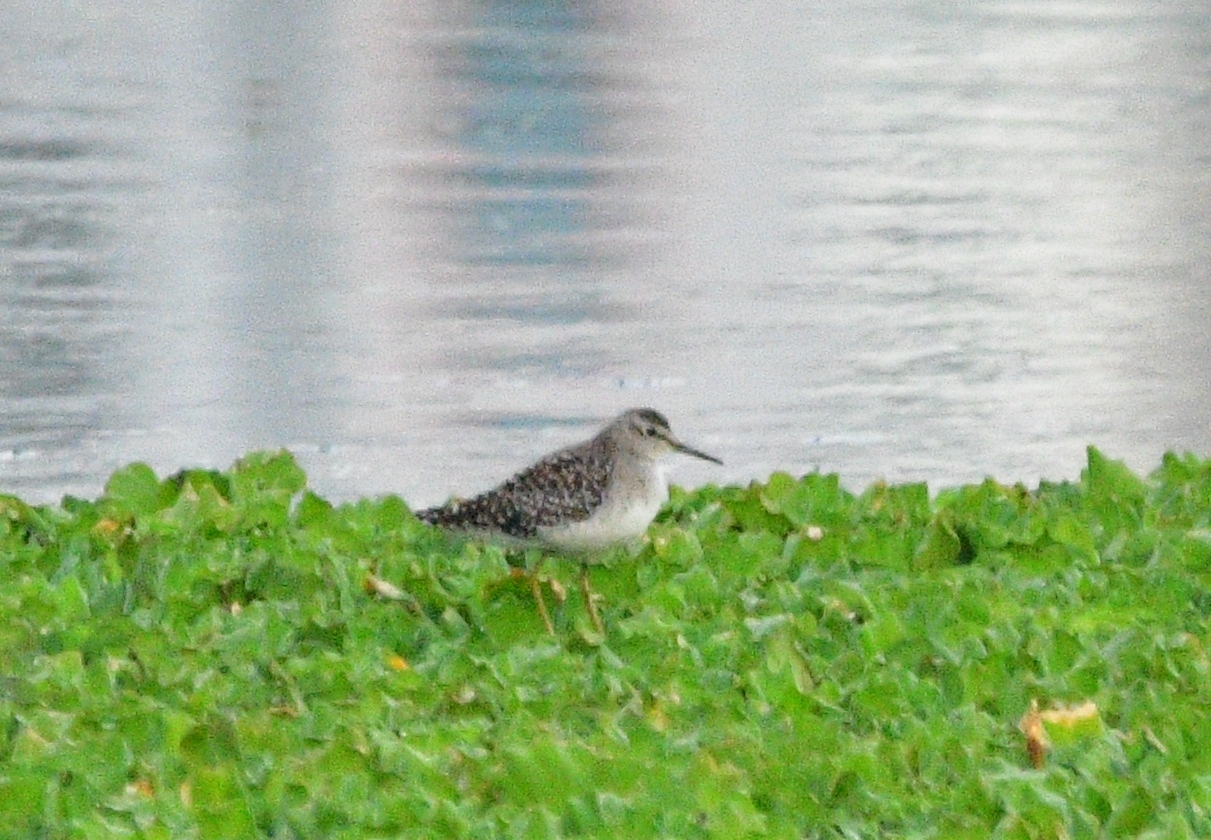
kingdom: Animalia
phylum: Chordata
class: Aves
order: Charadriiformes
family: Scolopacidae
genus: Tringa
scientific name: Tringa glareola
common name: Wood sandpiper
